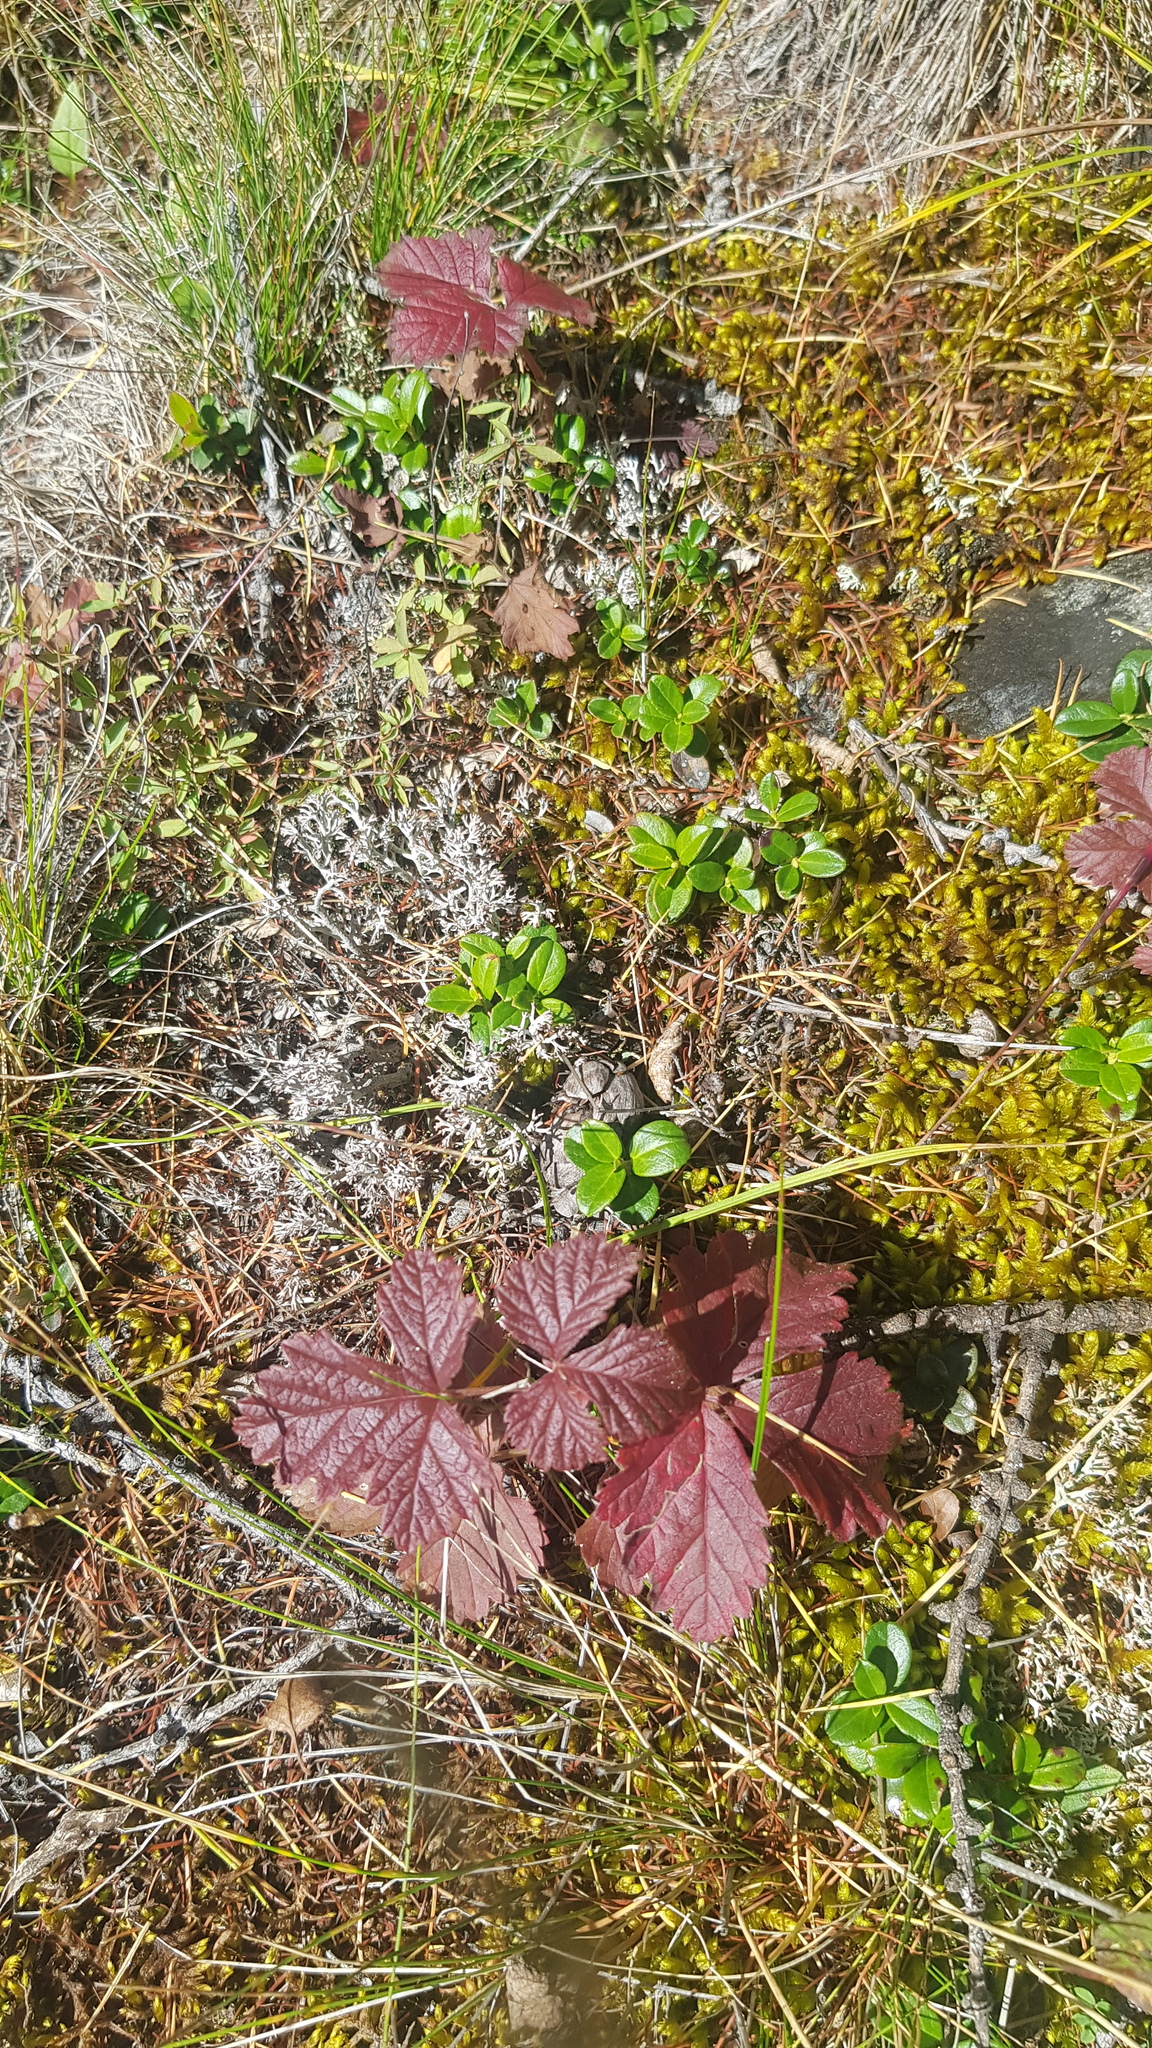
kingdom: Plantae
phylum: Tracheophyta
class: Magnoliopsida
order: Rosales
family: Rosaceae
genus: Rubus
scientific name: Rubus arcticus
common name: Arctic bramble
